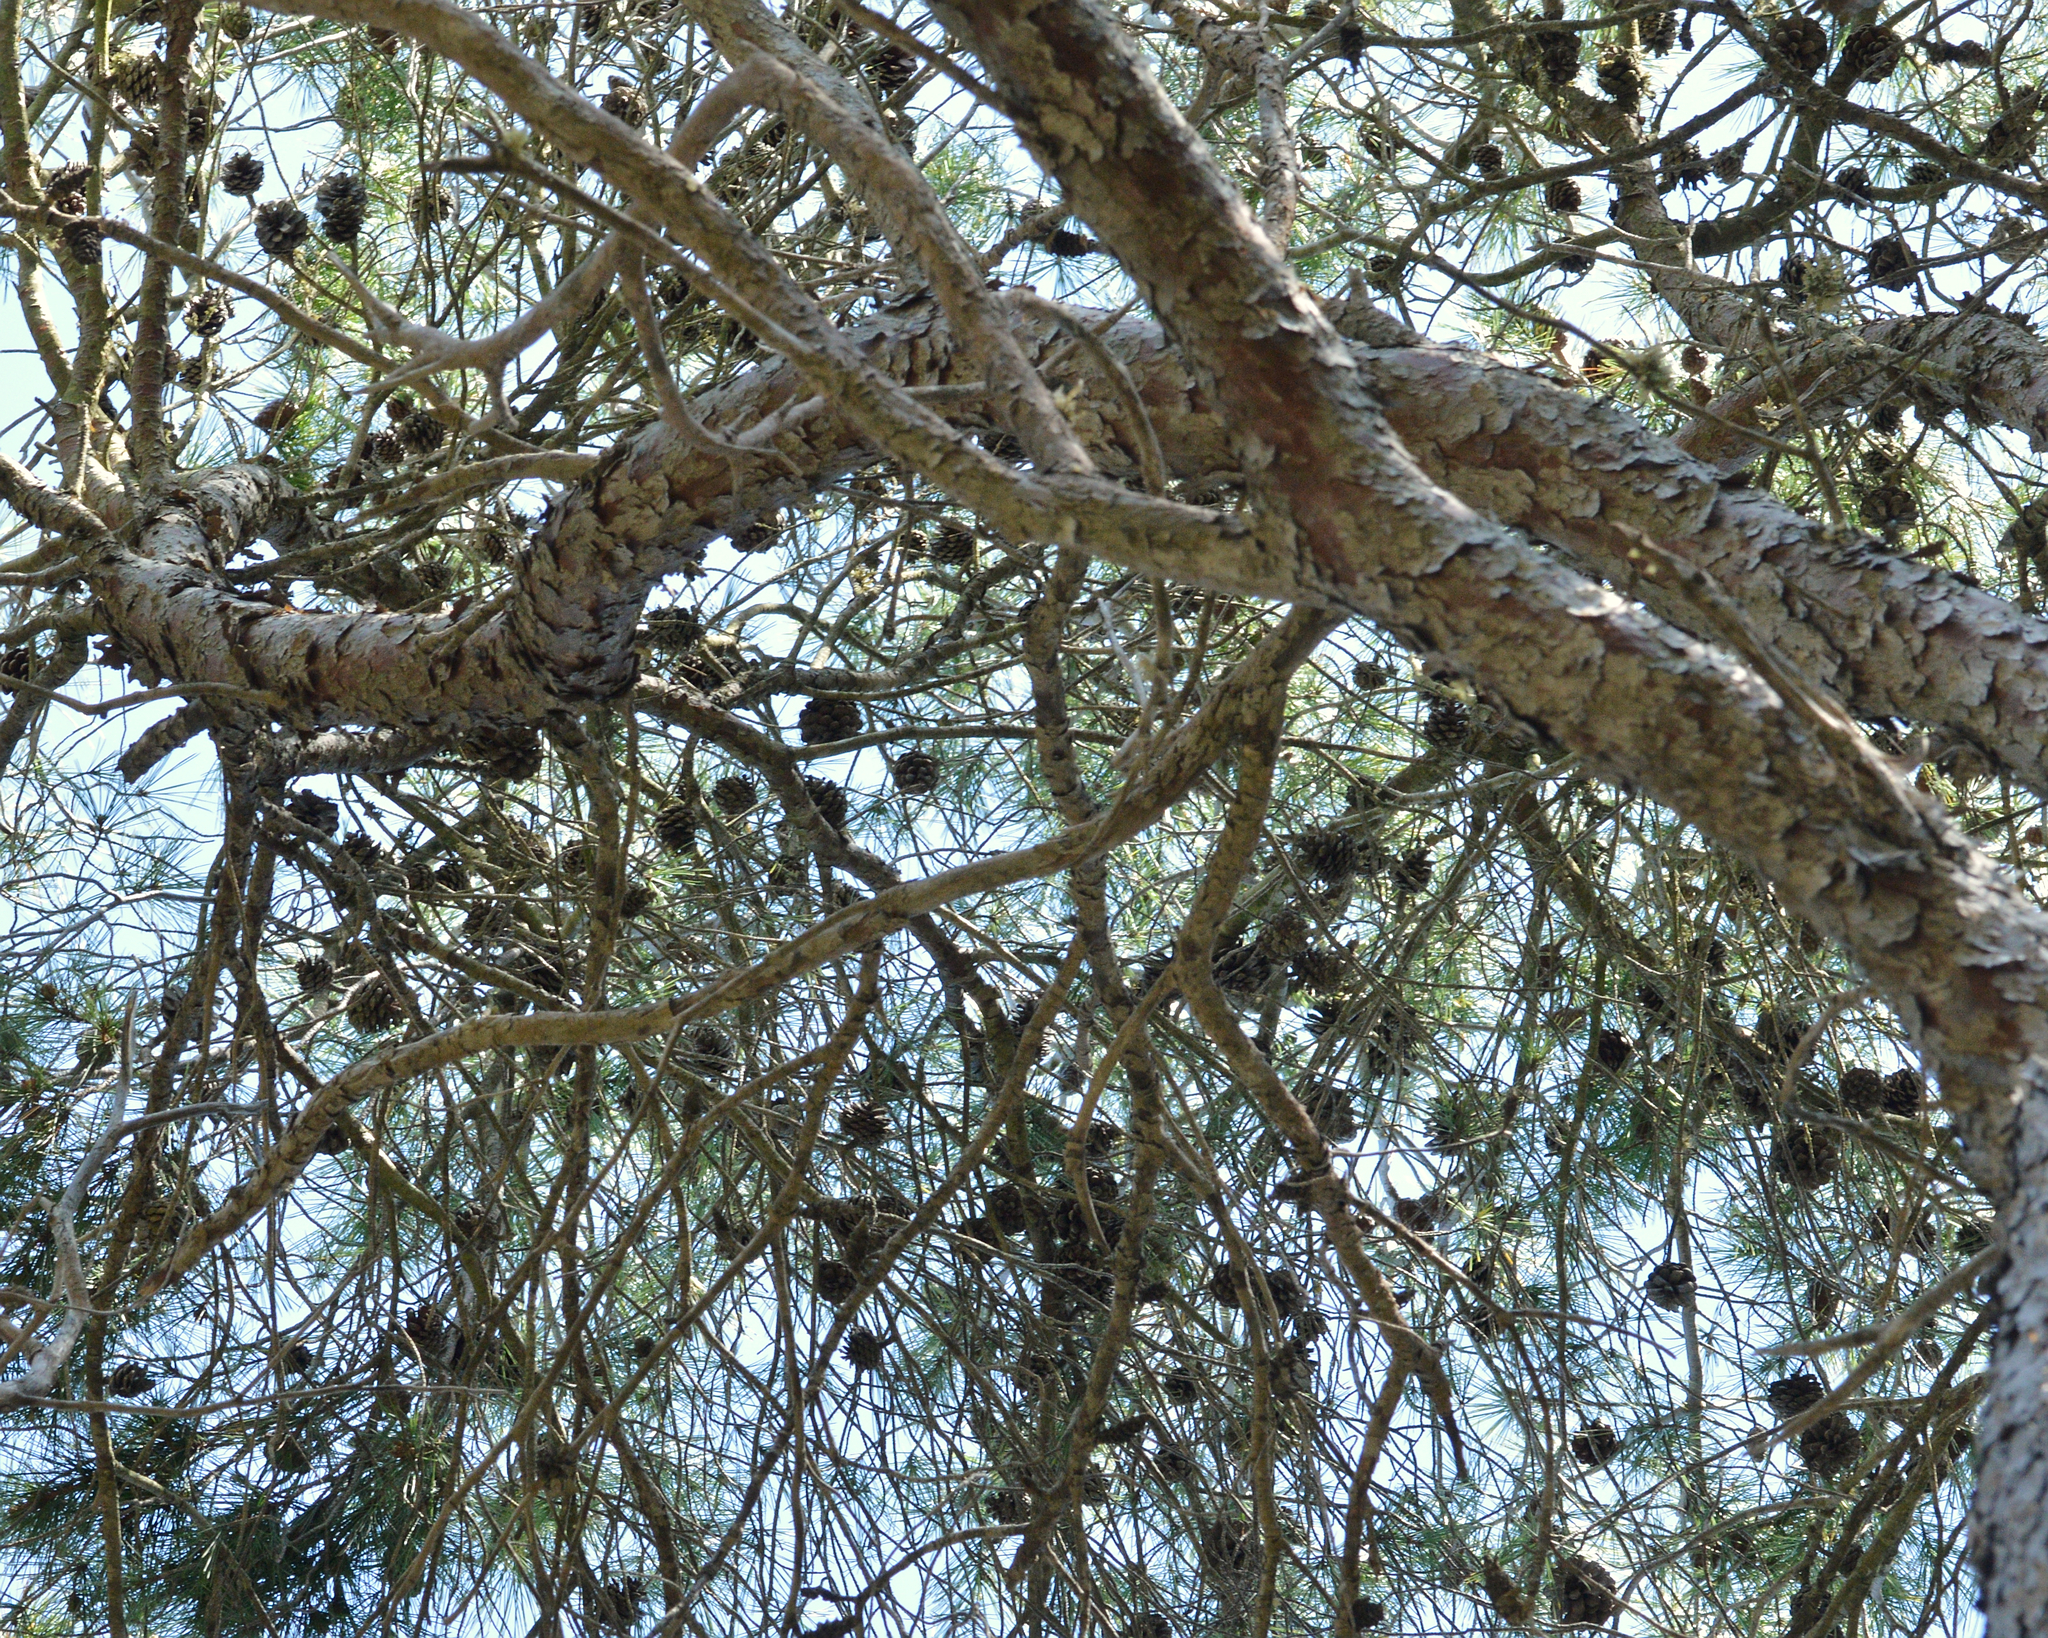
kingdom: Plantae
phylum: Tracheophyta
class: Pinopsida
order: Pinales
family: Pinaceae
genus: Pinus
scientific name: Pinus halepensis
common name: Aleppo pine
